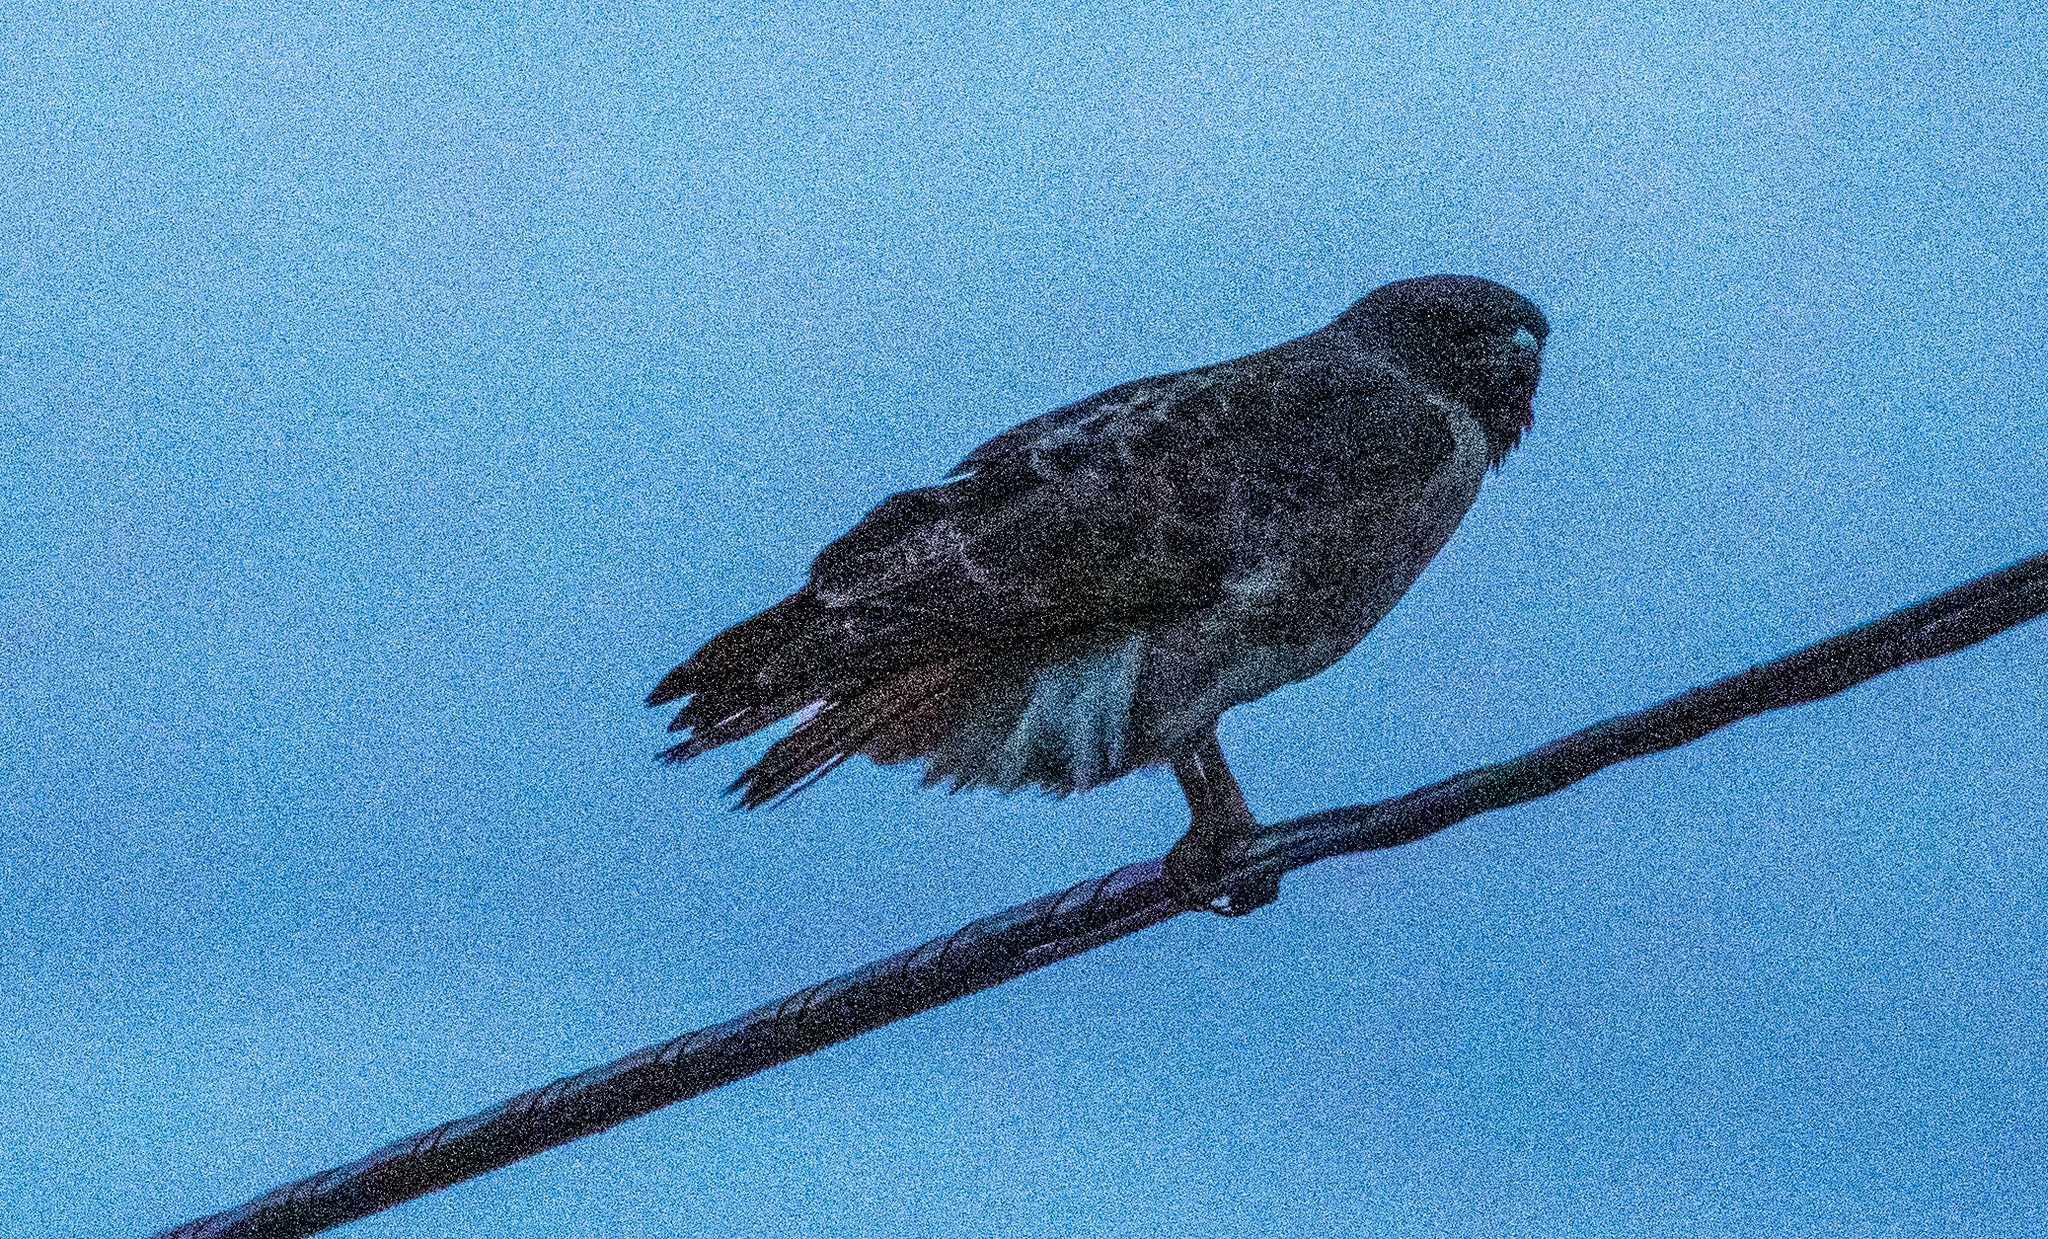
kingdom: Animalia
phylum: Chordata
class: Aves
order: Accipitriformes
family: Accipitridae
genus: Buteo
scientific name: Buteo jamaicensis
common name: Red-tailed hawk
